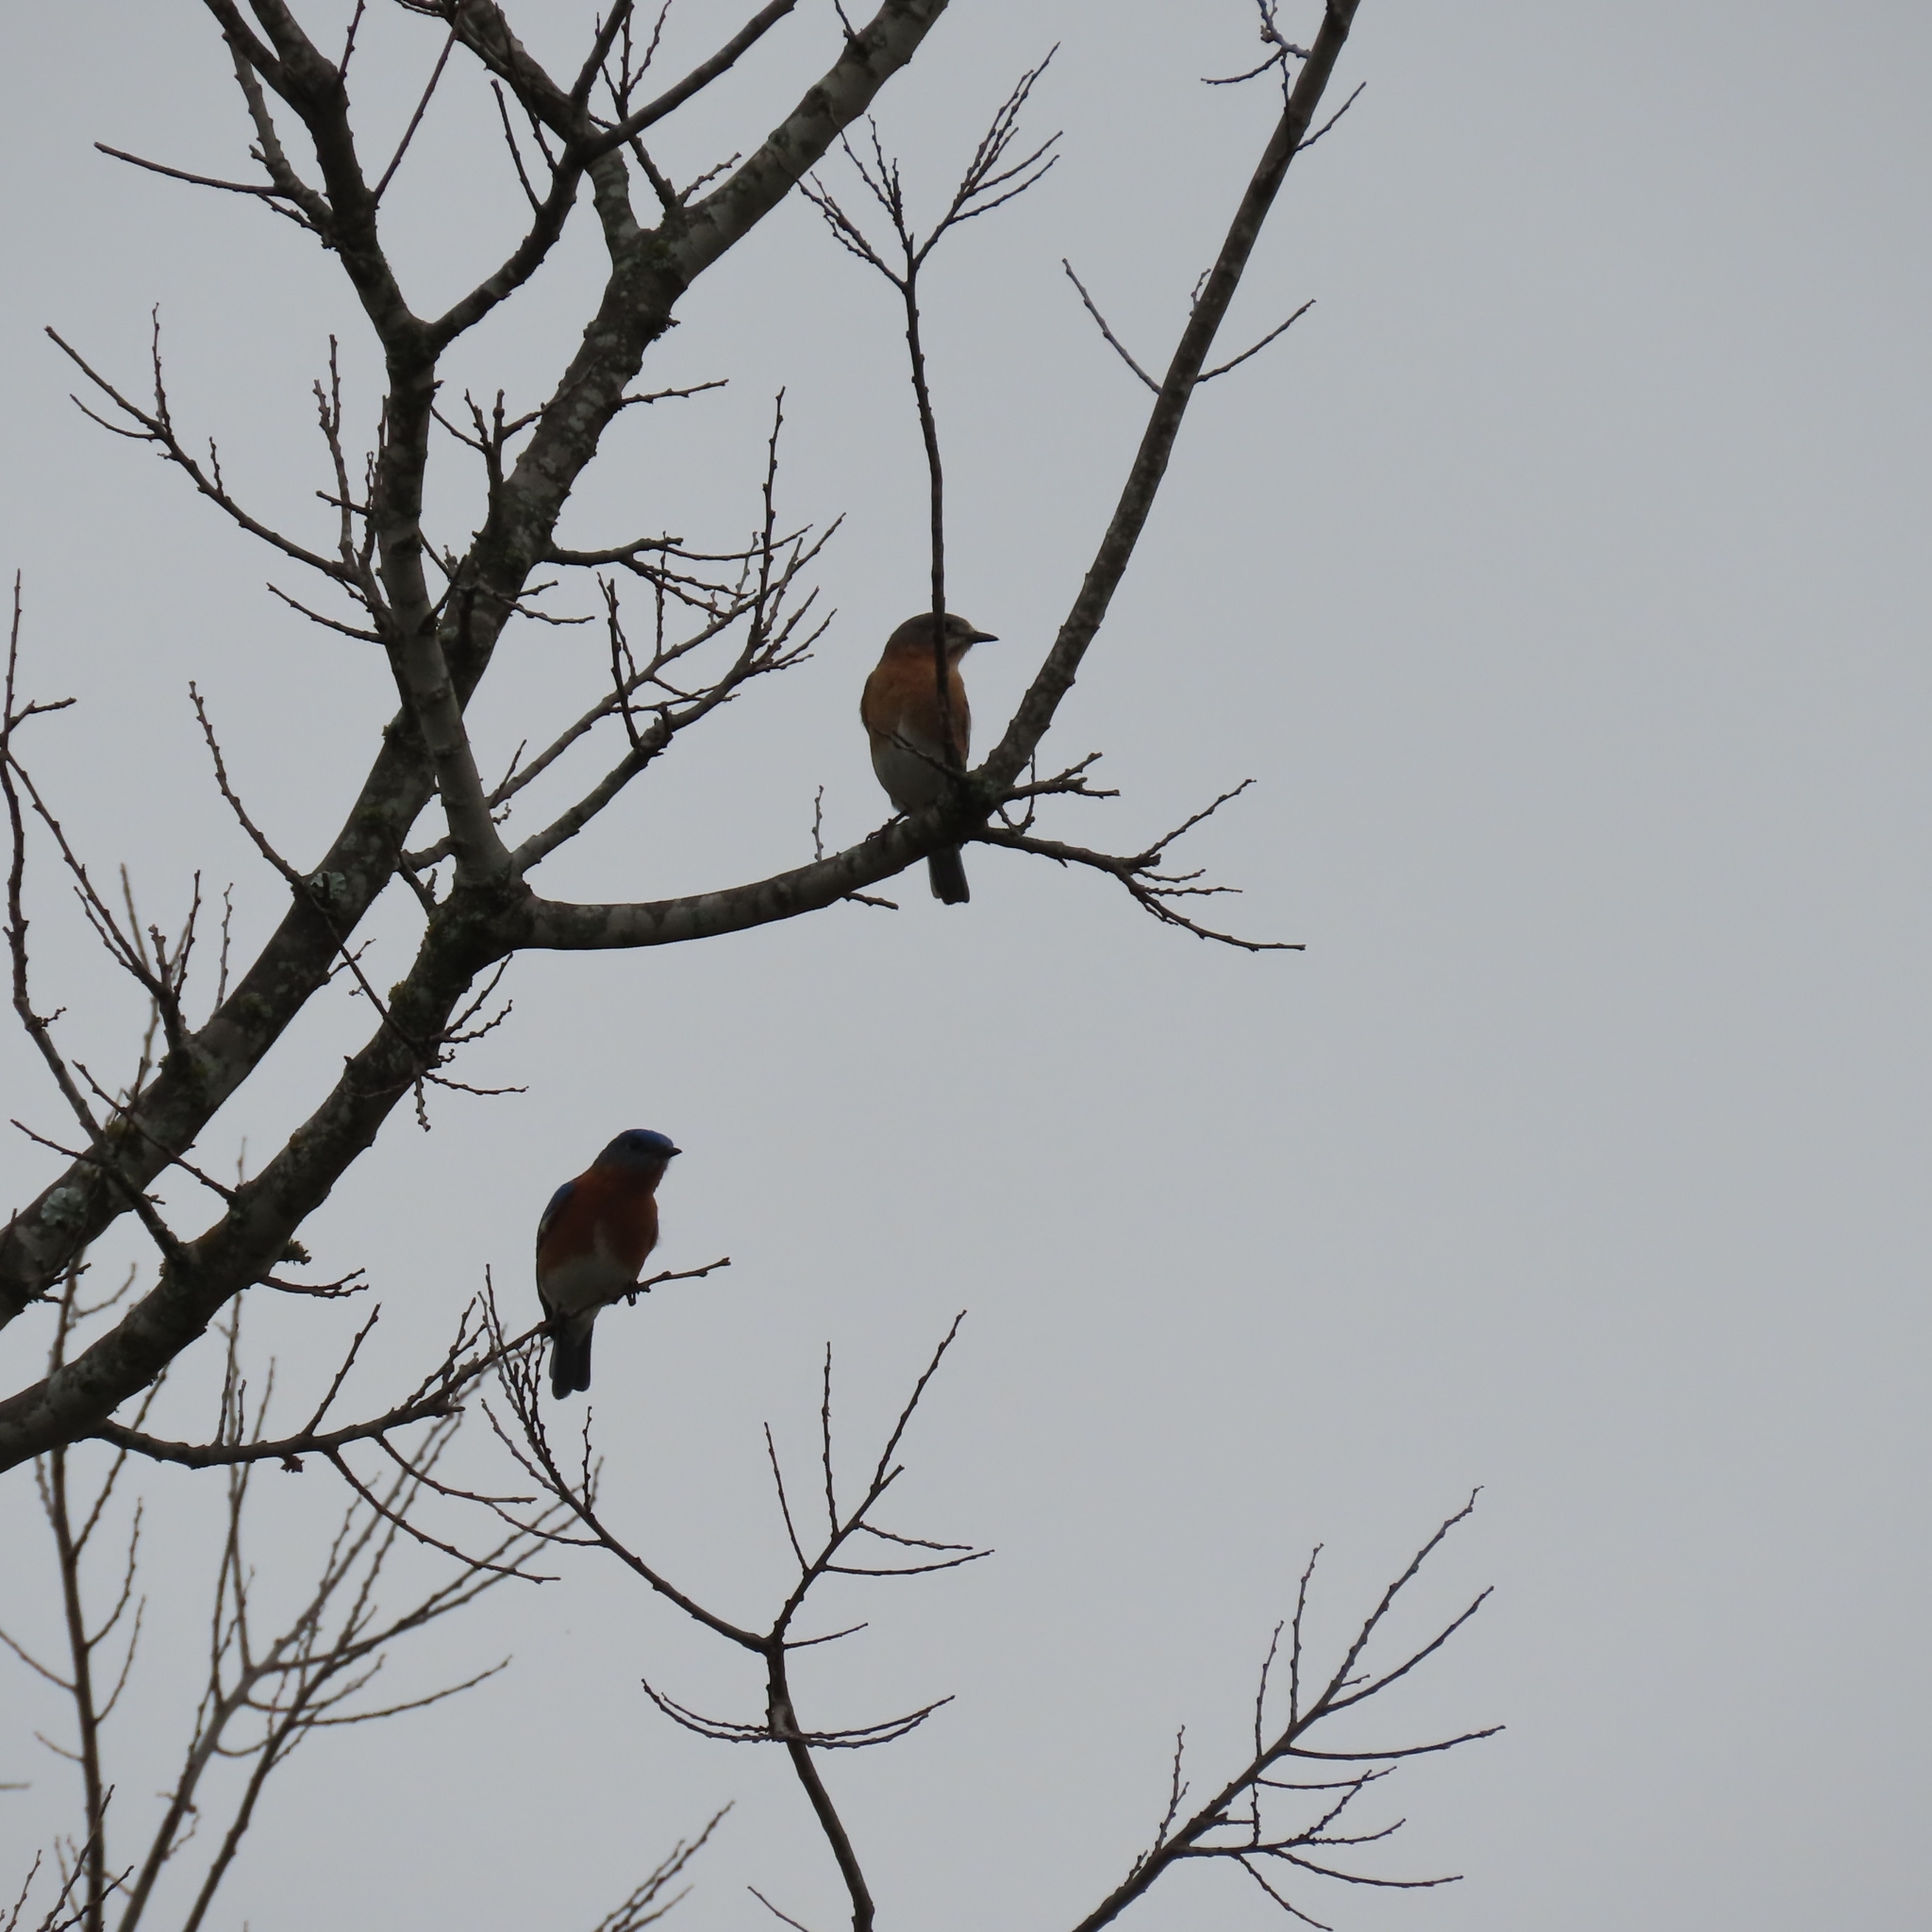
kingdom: Animalia
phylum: Chordata
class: Aves
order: Passeriformes
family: Turdidae
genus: Sialia
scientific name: Sialia sialis
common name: Eastern bluebird
